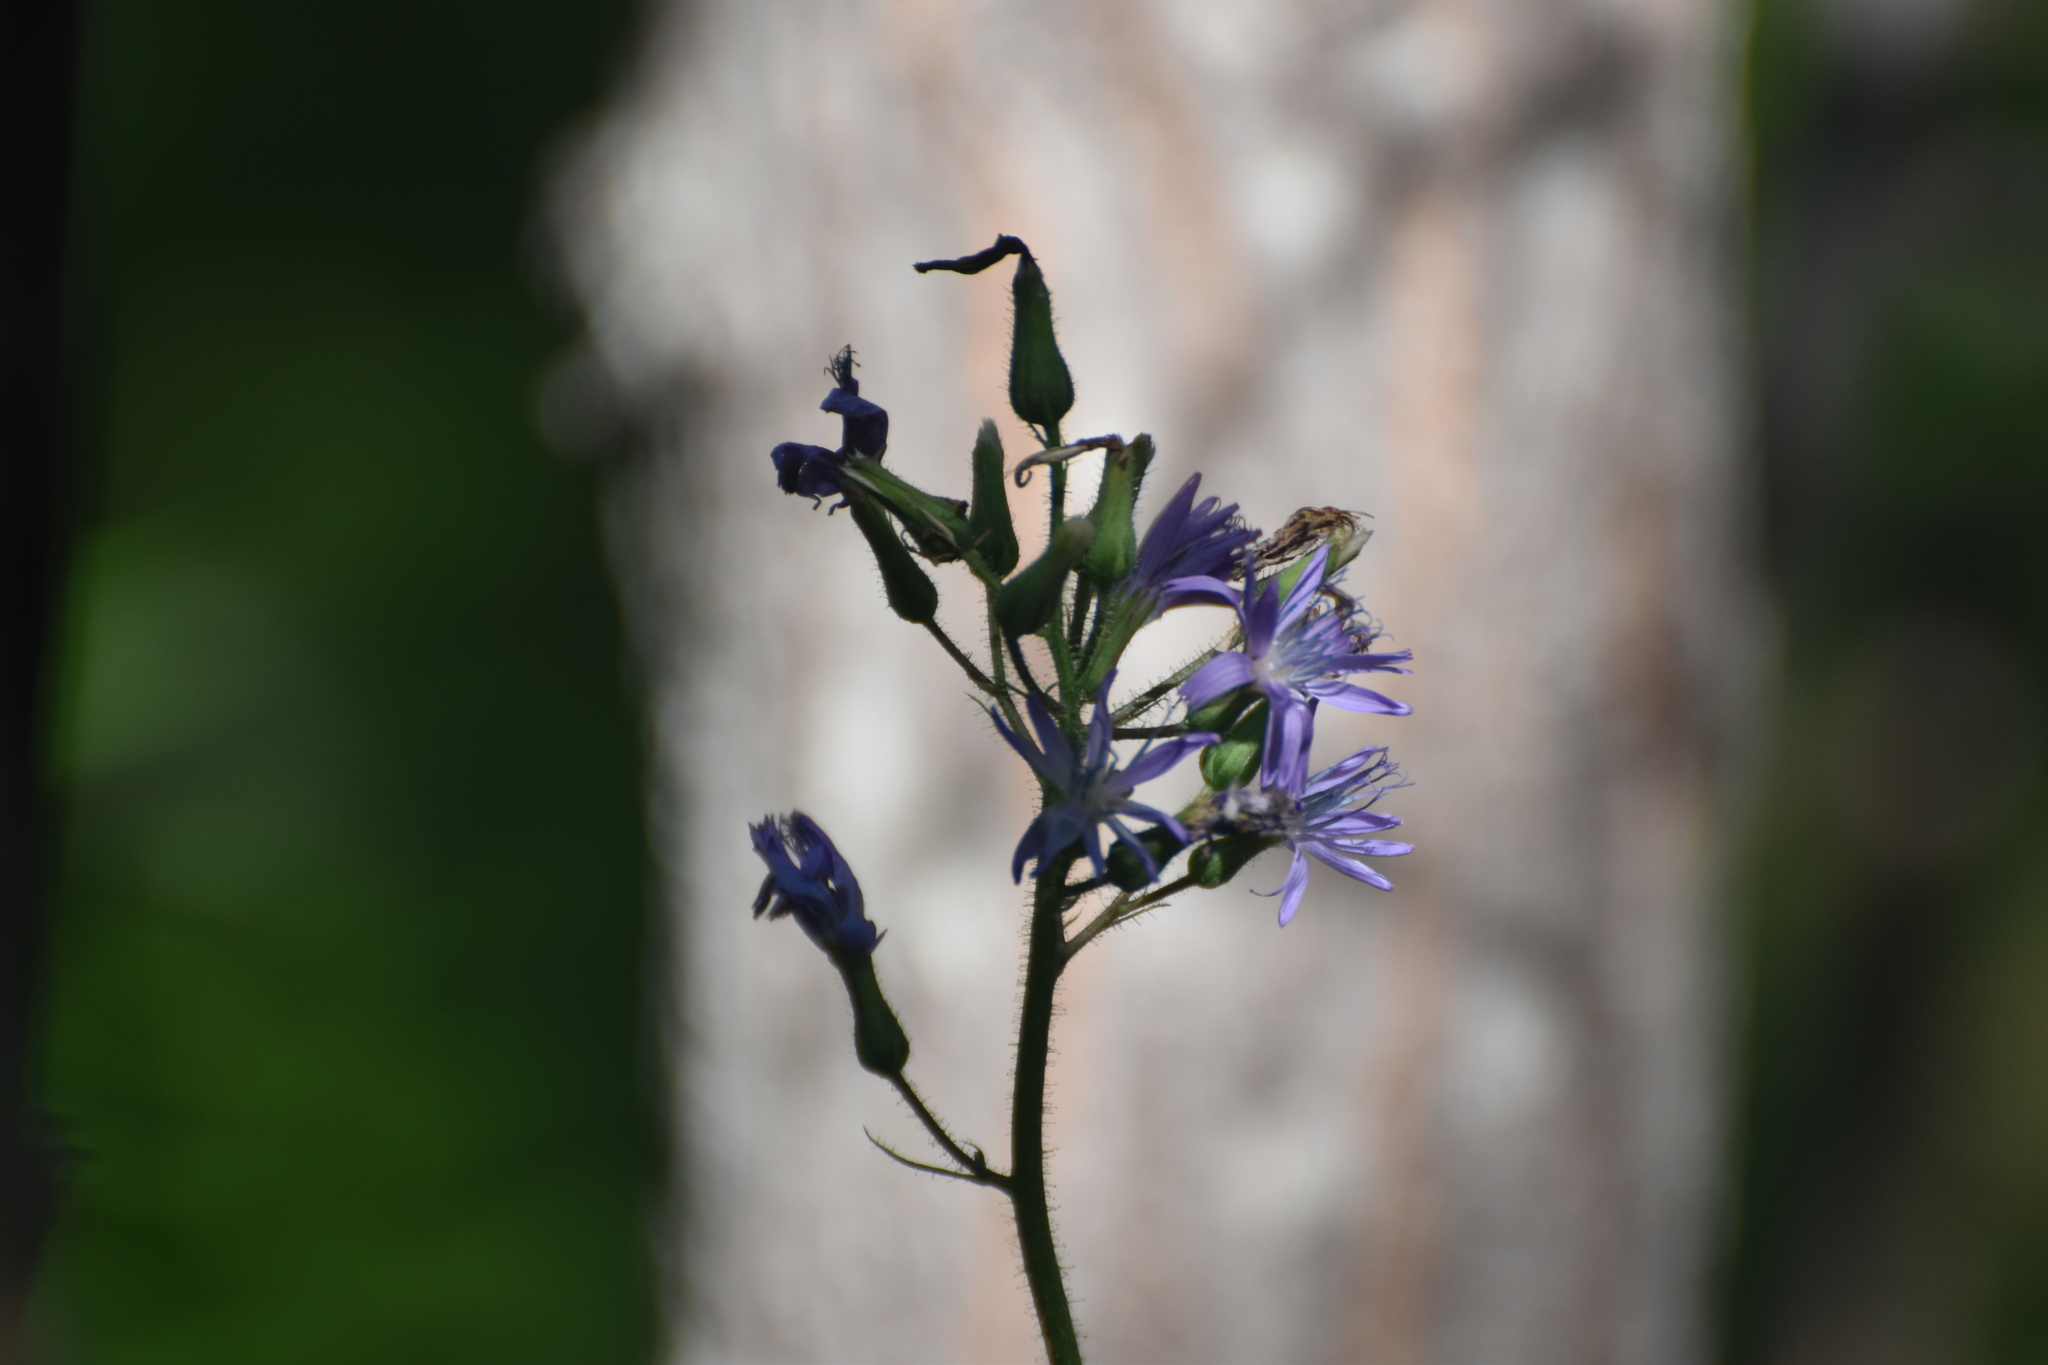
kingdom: Plantae
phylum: Tracheophyta
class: Magnoliopsida
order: Asterales
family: Asteraceae
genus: Cicerbita
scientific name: Cicerbita alpina
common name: Alpine blue-sow-thistle
